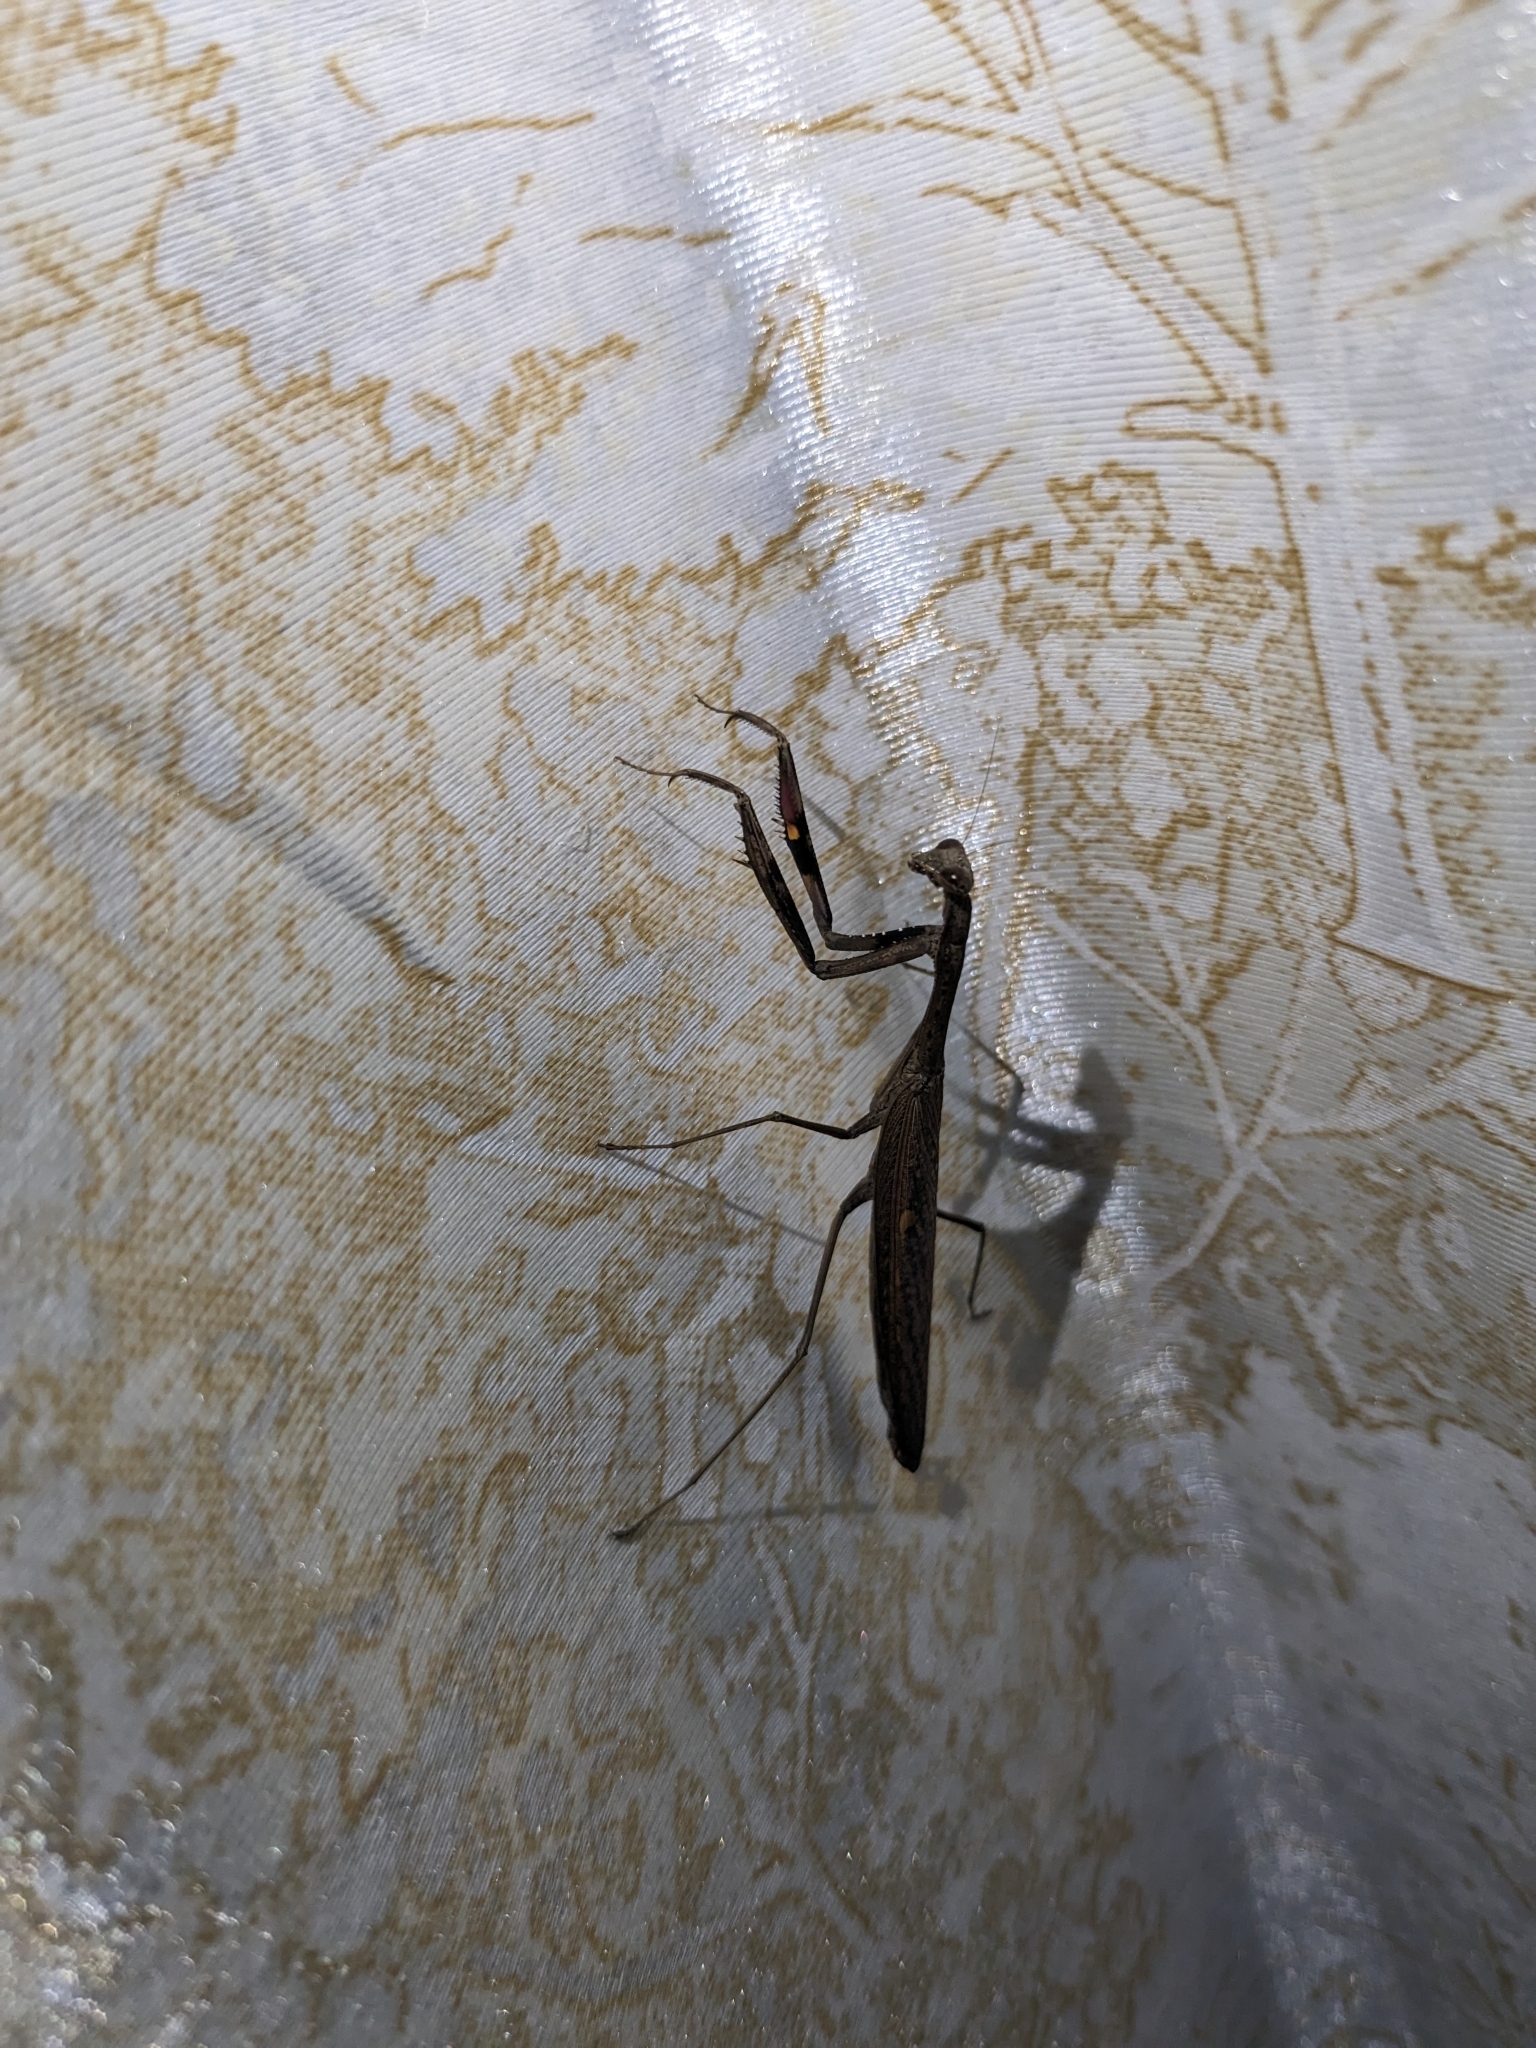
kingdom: Animalia
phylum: Arthropoda
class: Insecta
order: Mantodea
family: Mantidae
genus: Statilia
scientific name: Statilia maculata
